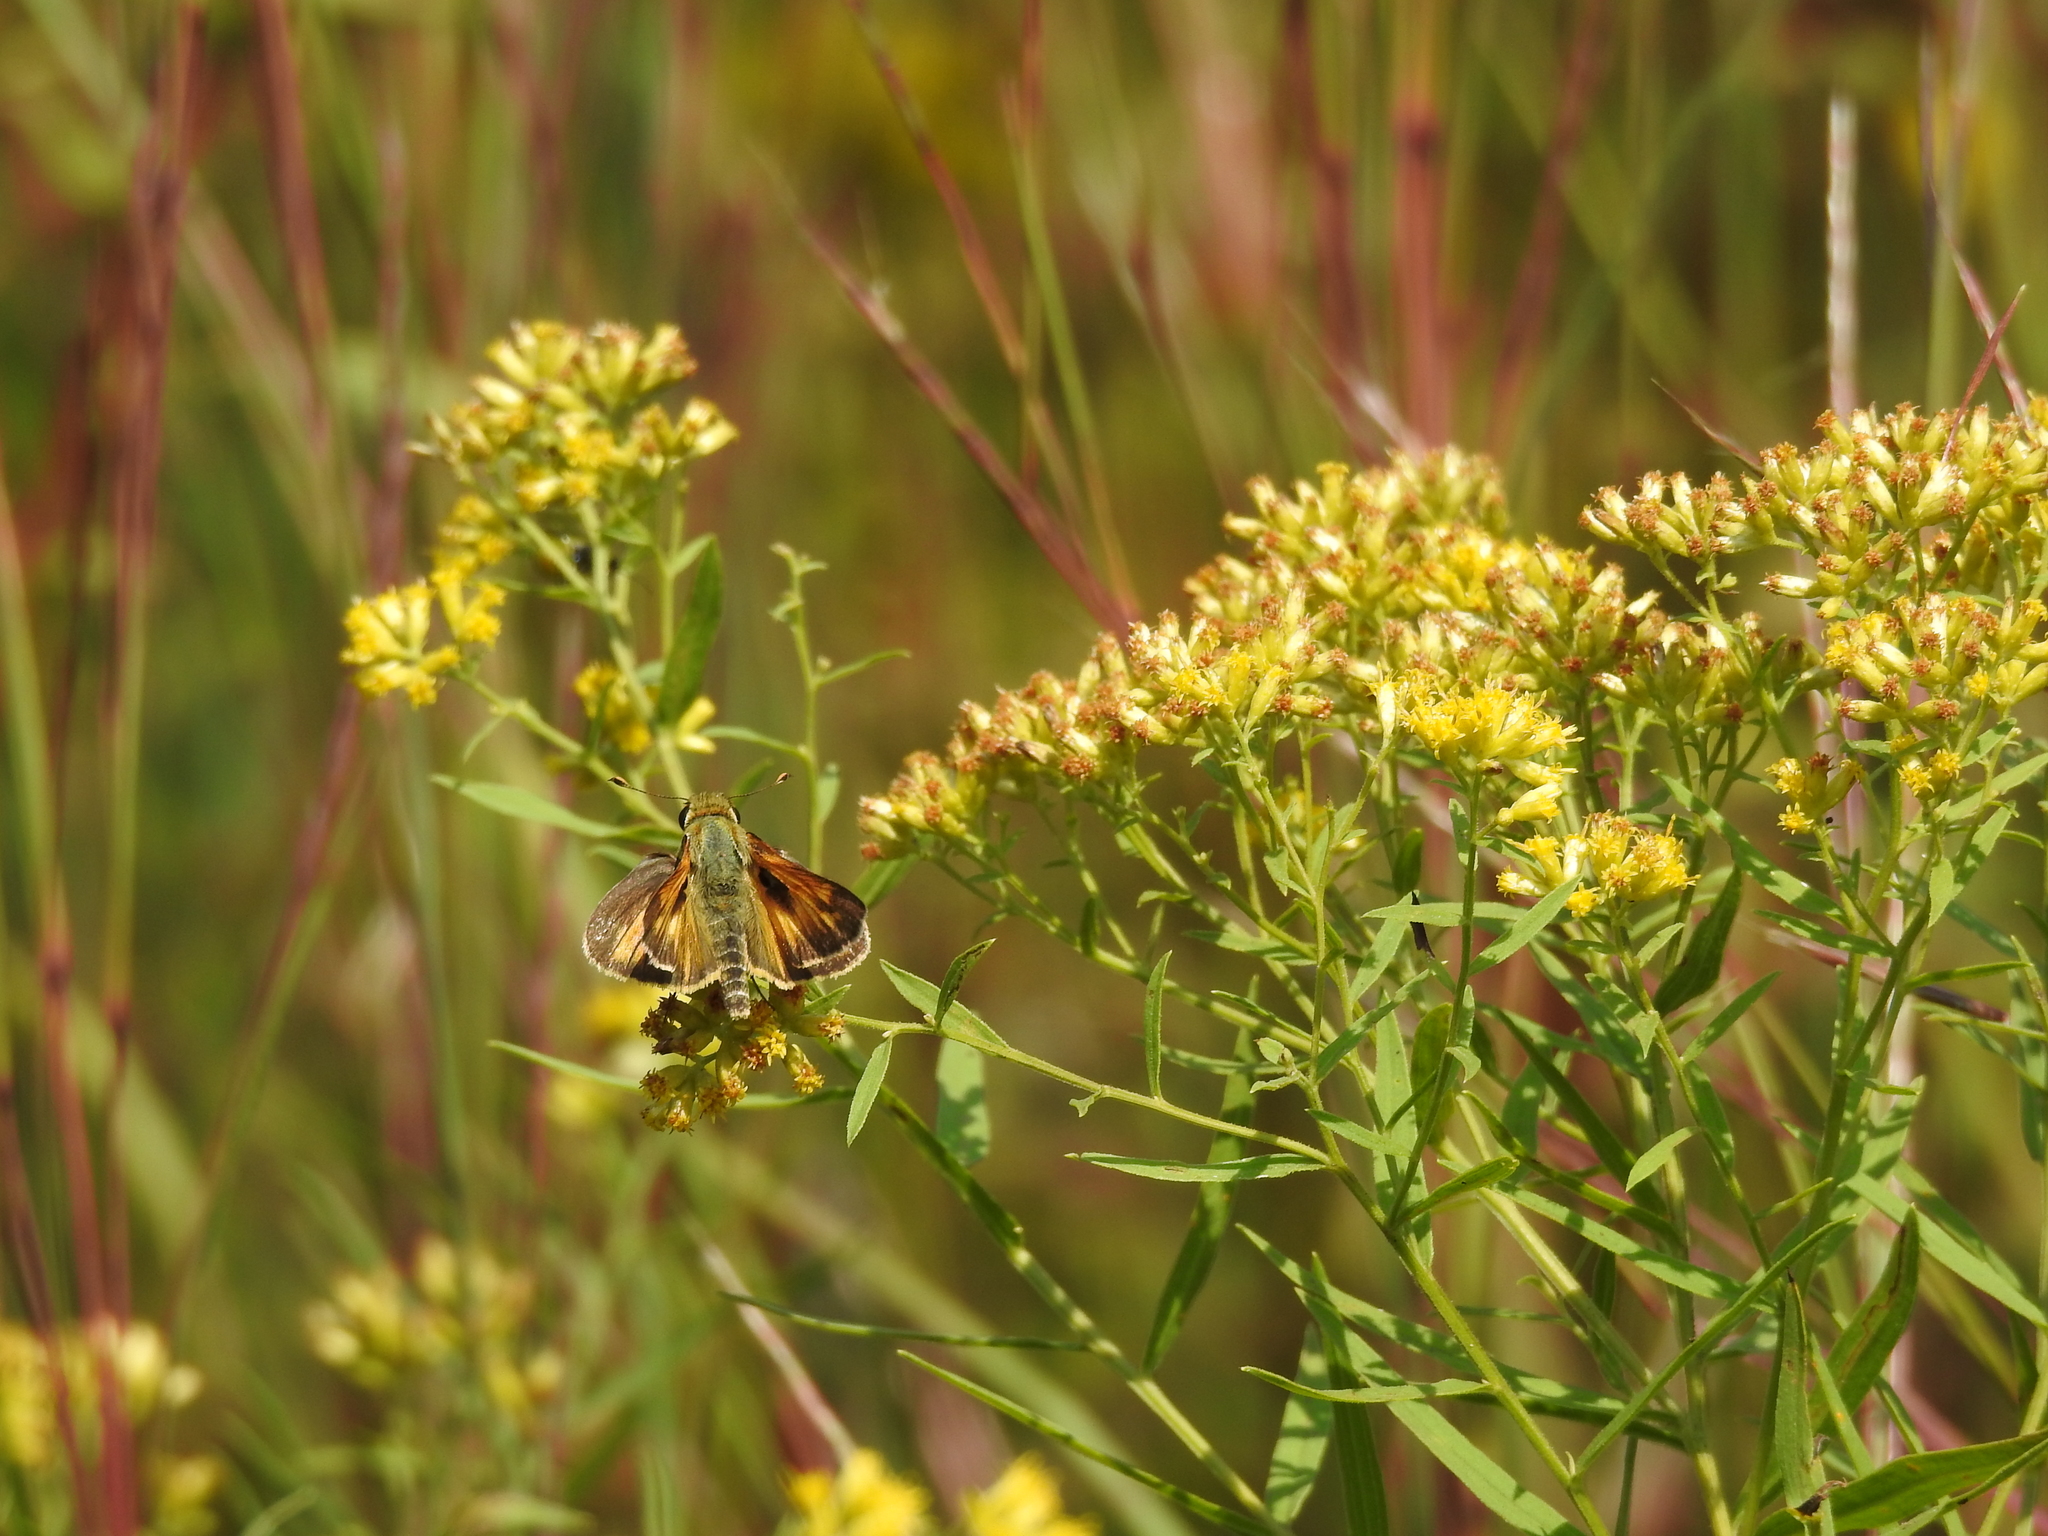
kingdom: Animalia
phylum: Arthropoda
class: Insecta
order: Lepidoptera
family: Hesperiidae
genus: Atalopedes
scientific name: Atalopedes
